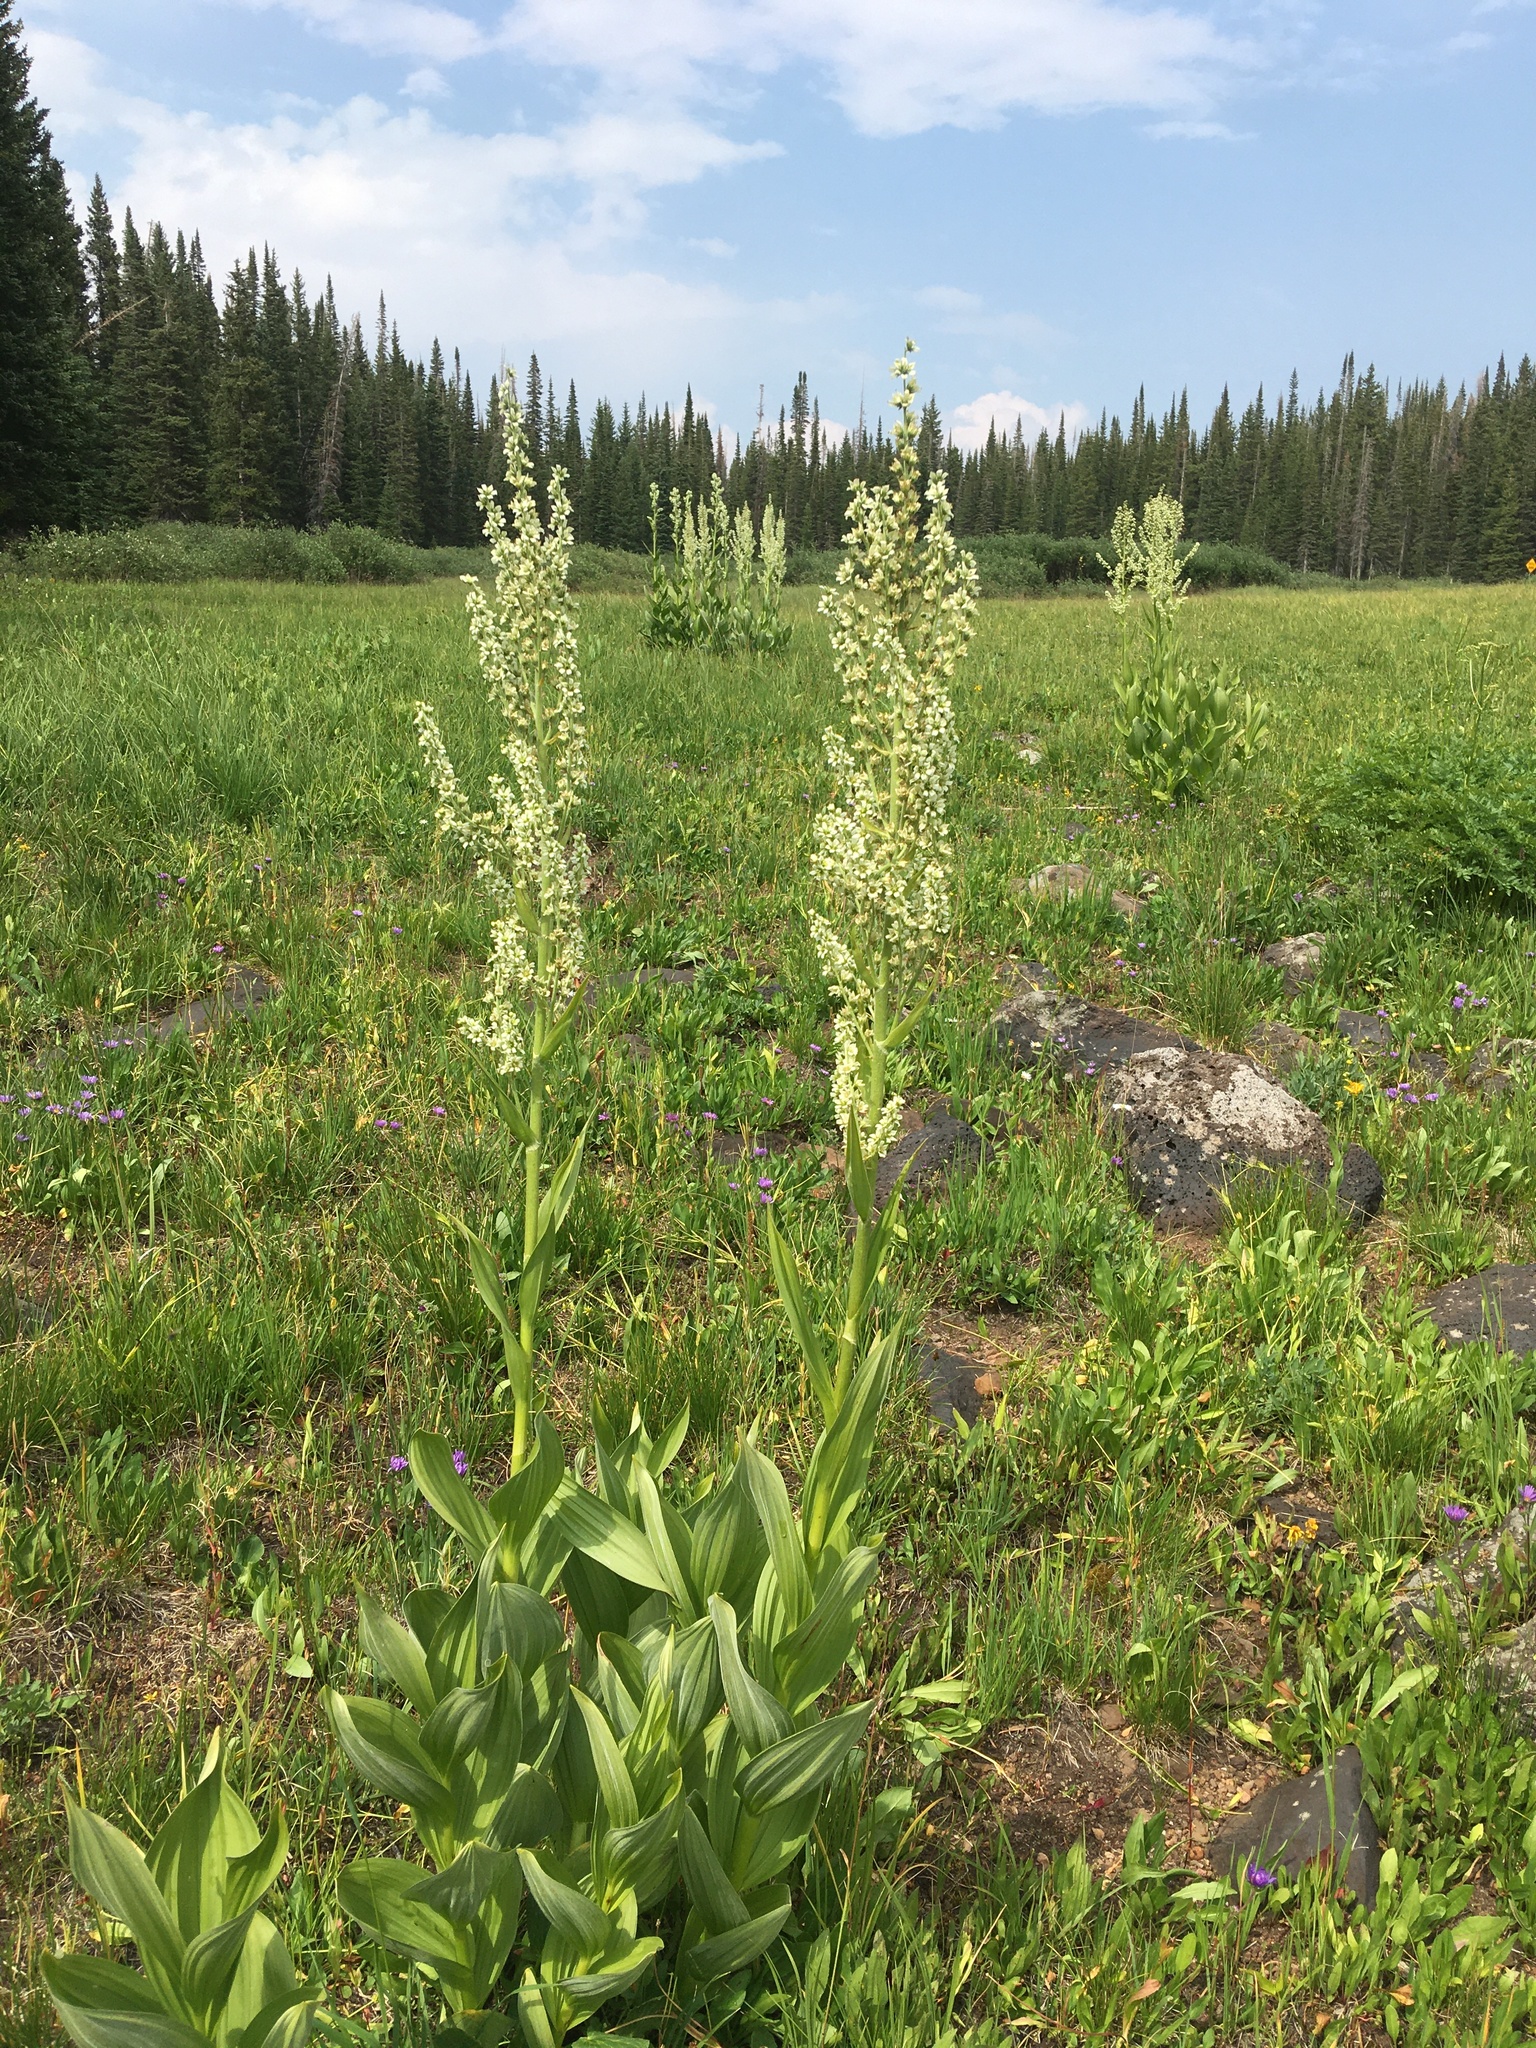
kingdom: Plantae
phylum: Tracheophyta
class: Liliopsida
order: Liliales
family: Melanthiaceae
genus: Veratrum
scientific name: Veratrum californicum
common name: California veratrum
